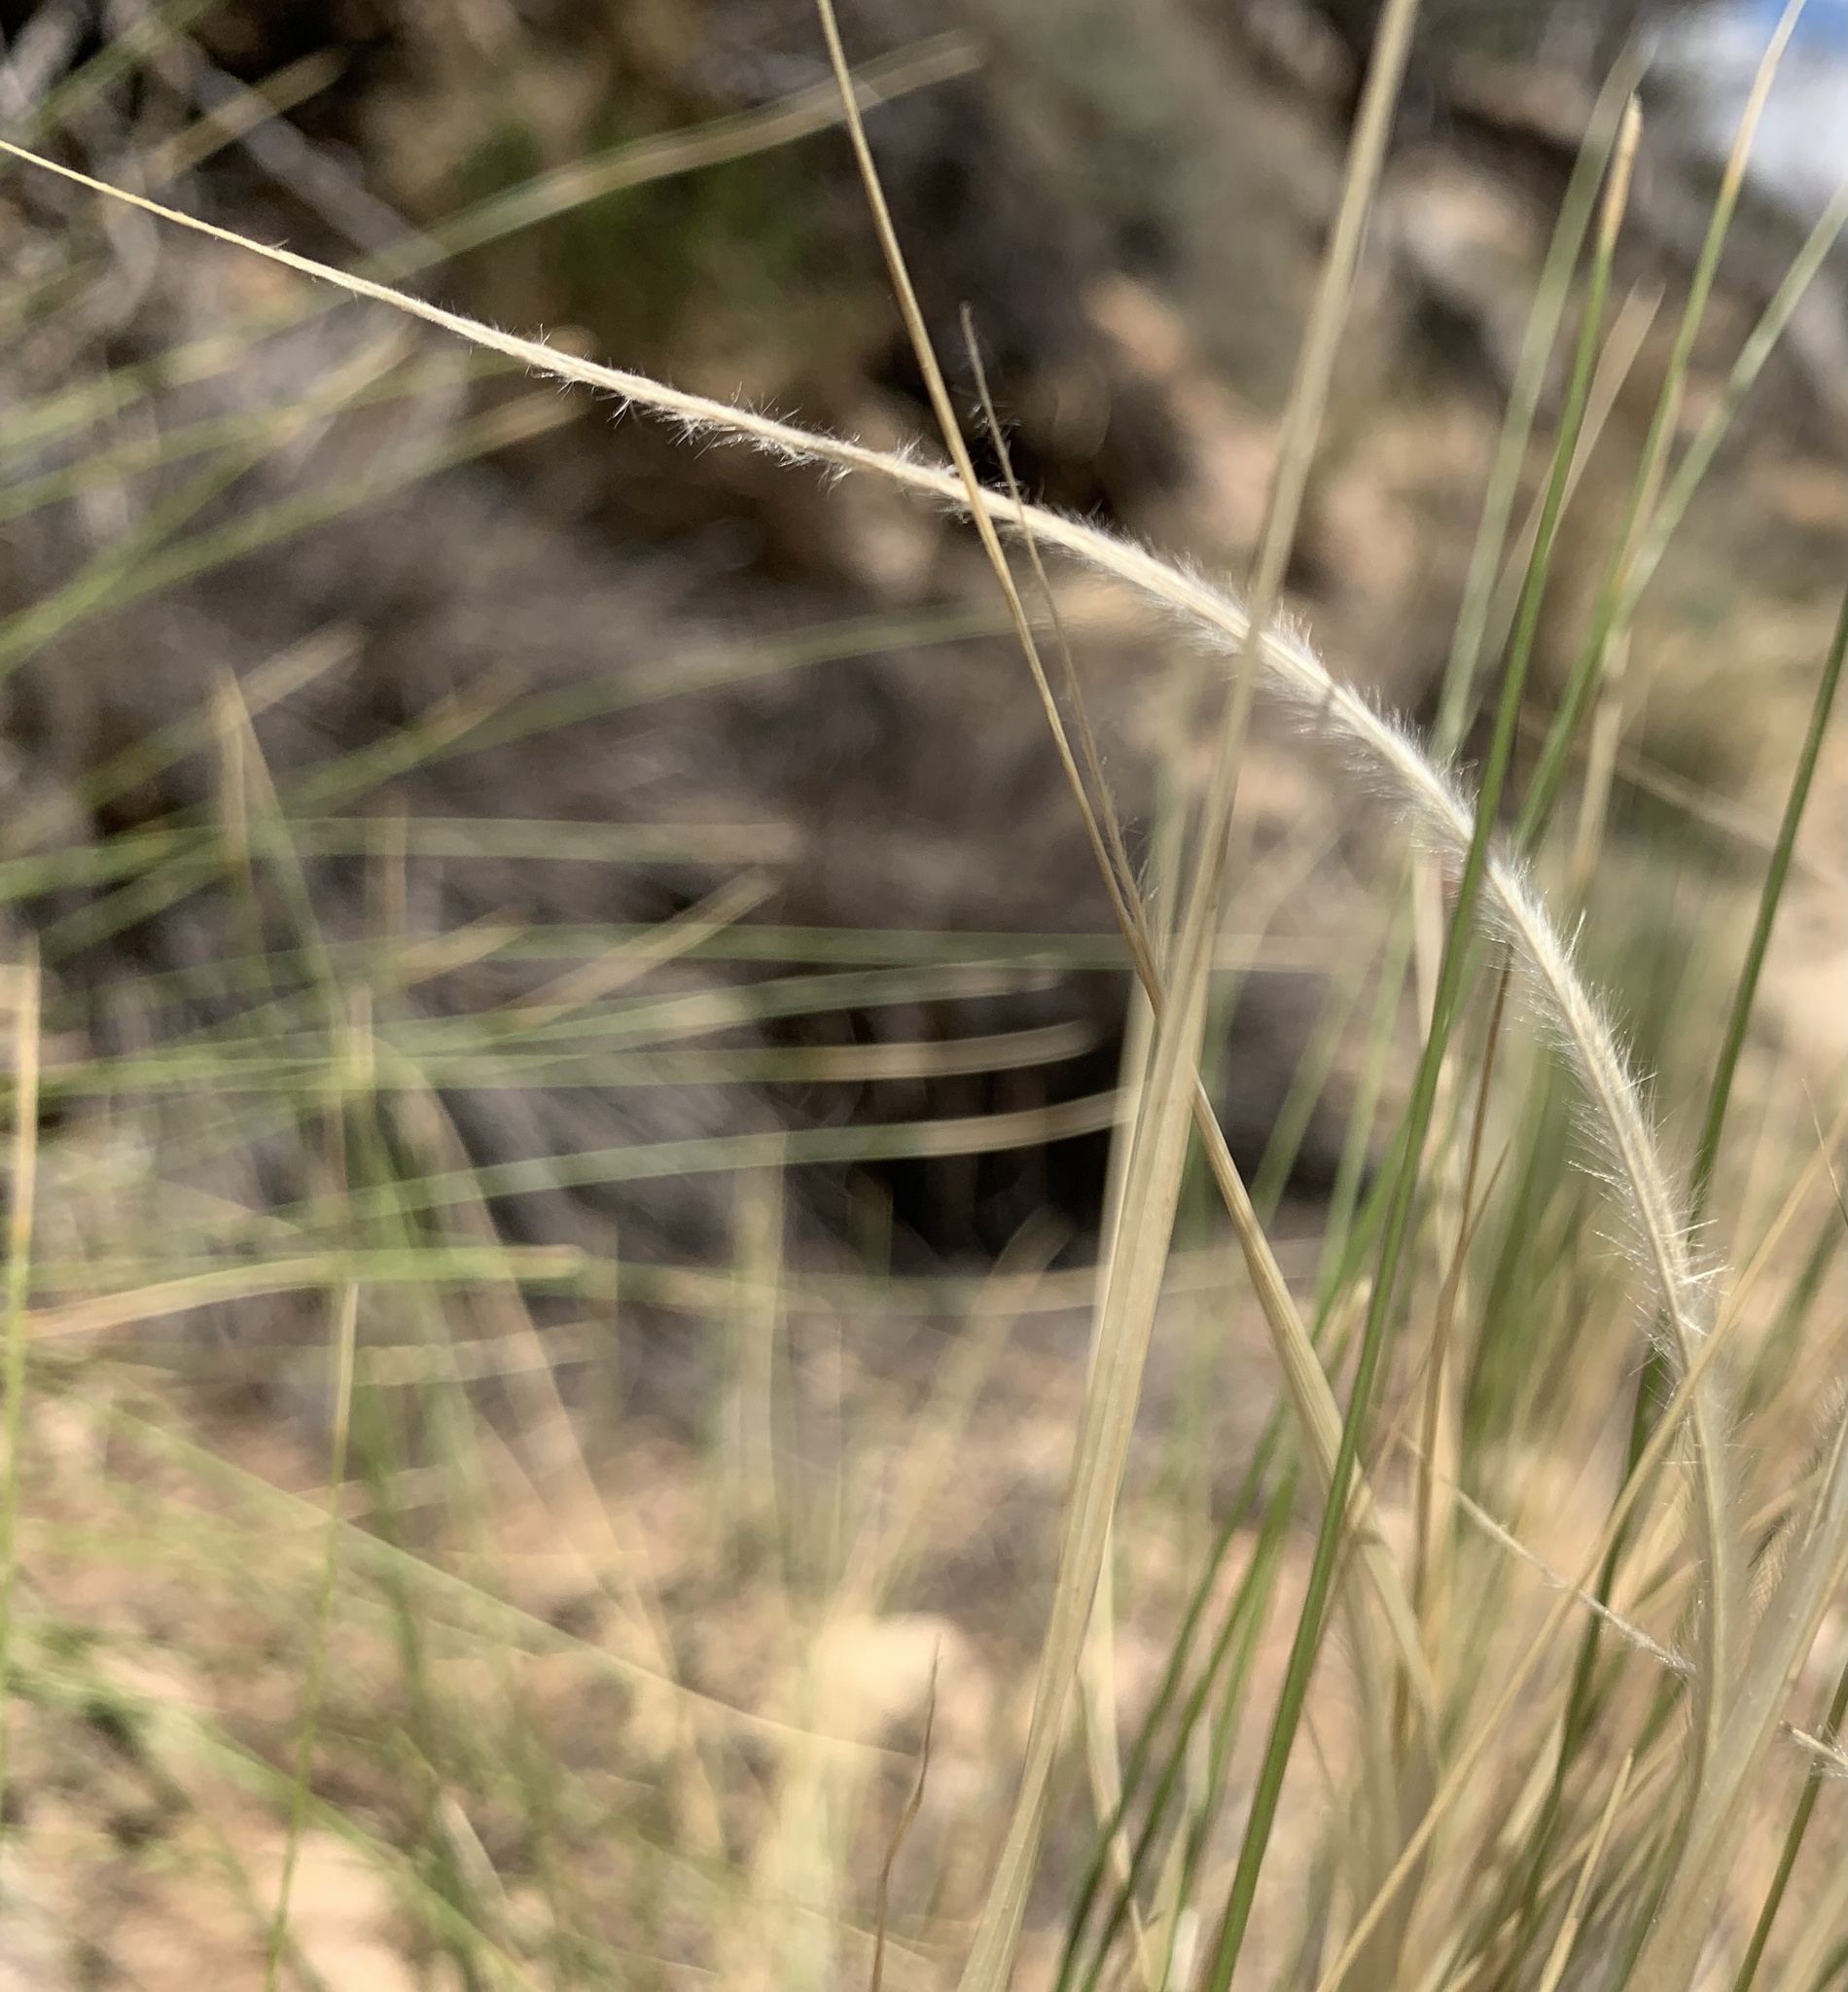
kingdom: Plantae
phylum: Tracheophyta
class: Liliopsida
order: Poales
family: Poaceae
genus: Hesperostipa
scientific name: Hesperostipa neomexicana
